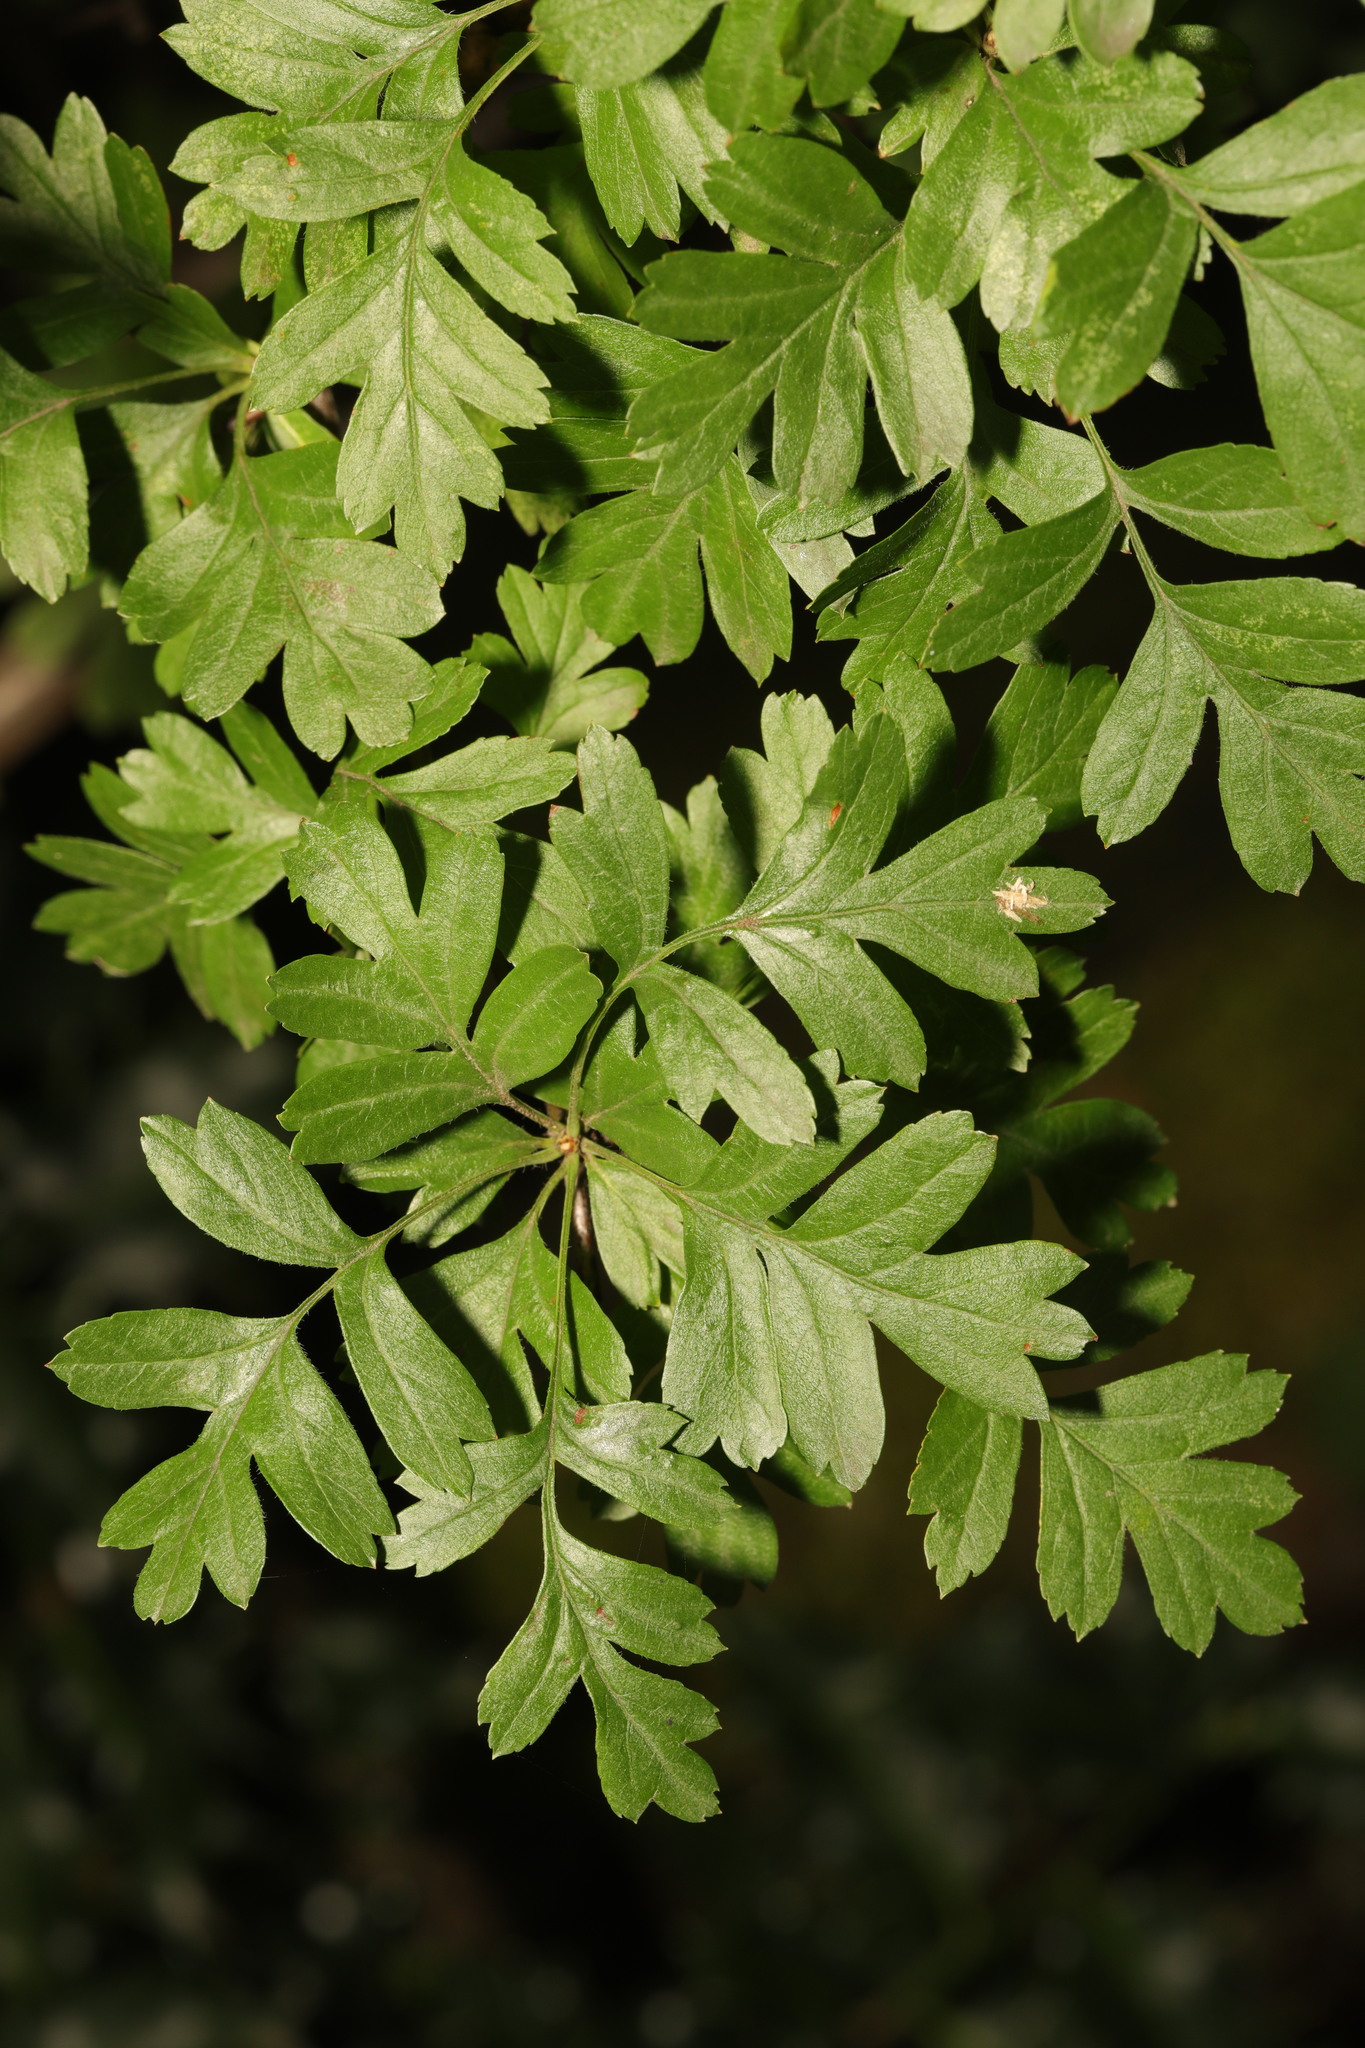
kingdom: Plantae
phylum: Tracheophyta
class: Magnoliopsida
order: Rosales
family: Rosaceae
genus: Crataegus
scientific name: Crataegus monogyna
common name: Hawthorn
